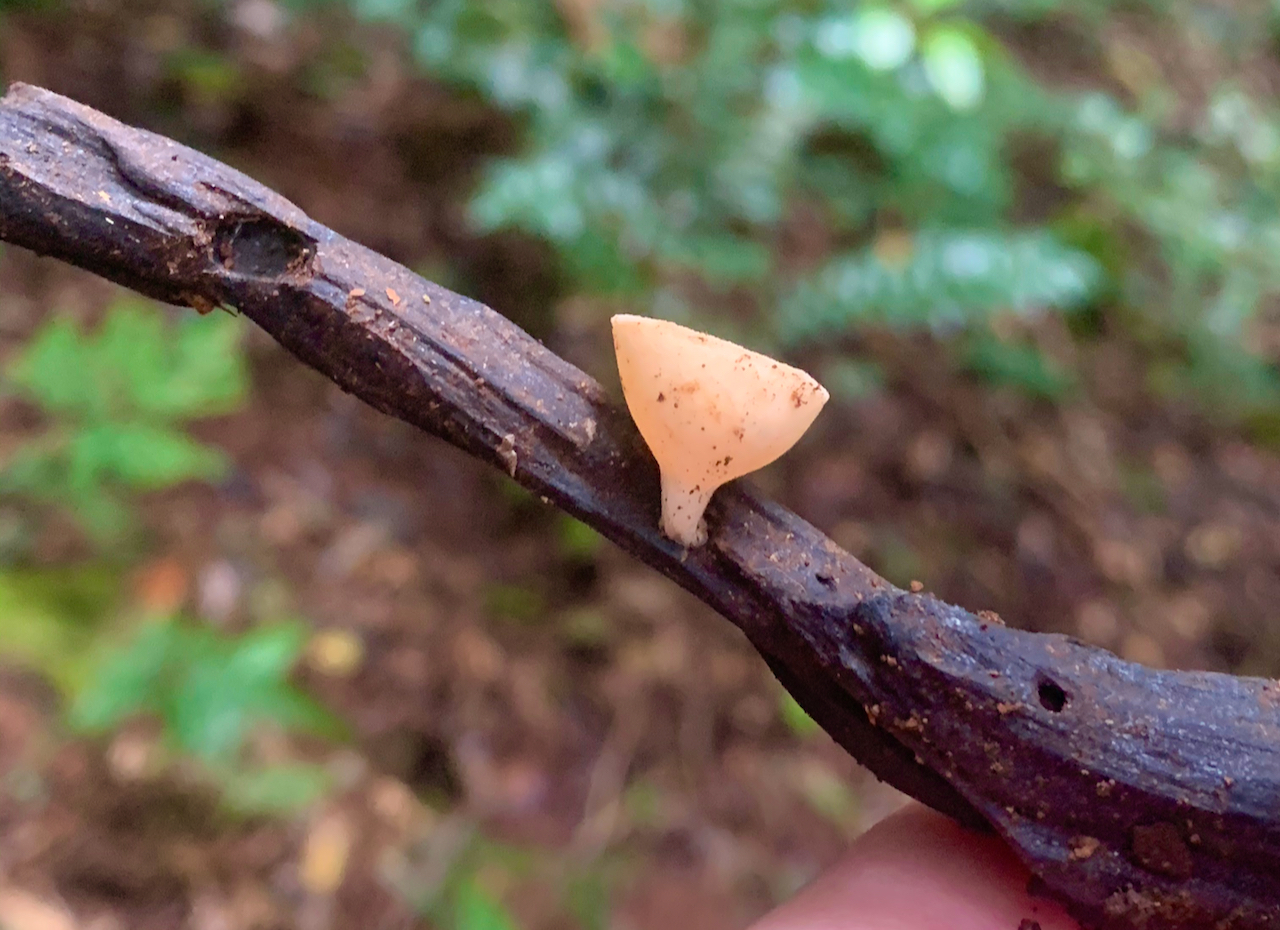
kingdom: Fungi
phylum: Ascomycota
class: Pezizomycetes
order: Pezizales
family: Sarcoscyphaceae
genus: Cookeina
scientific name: Cookeina sulcipes
